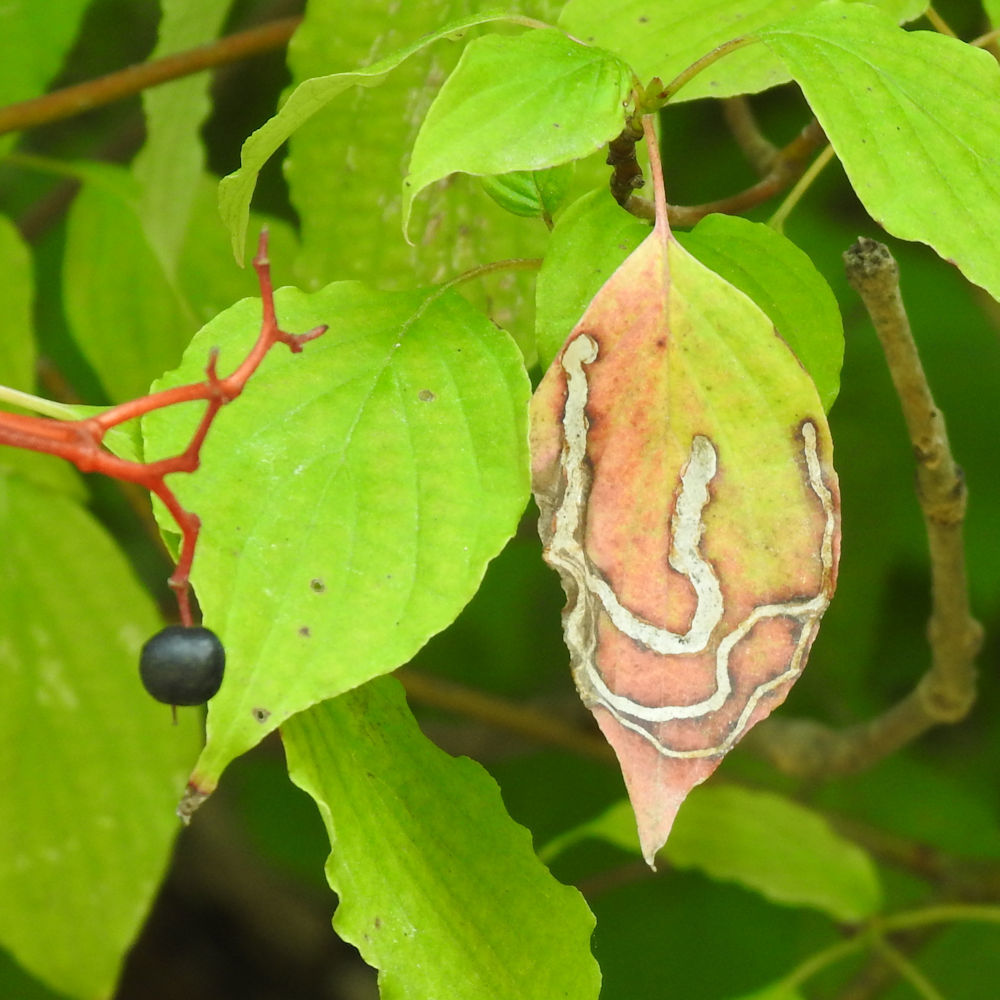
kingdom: Animalia
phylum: Arthropoda
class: Insecta
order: Diptera
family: Agromyzidae
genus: Phytomyza
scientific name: Phytomyza agromyzina
